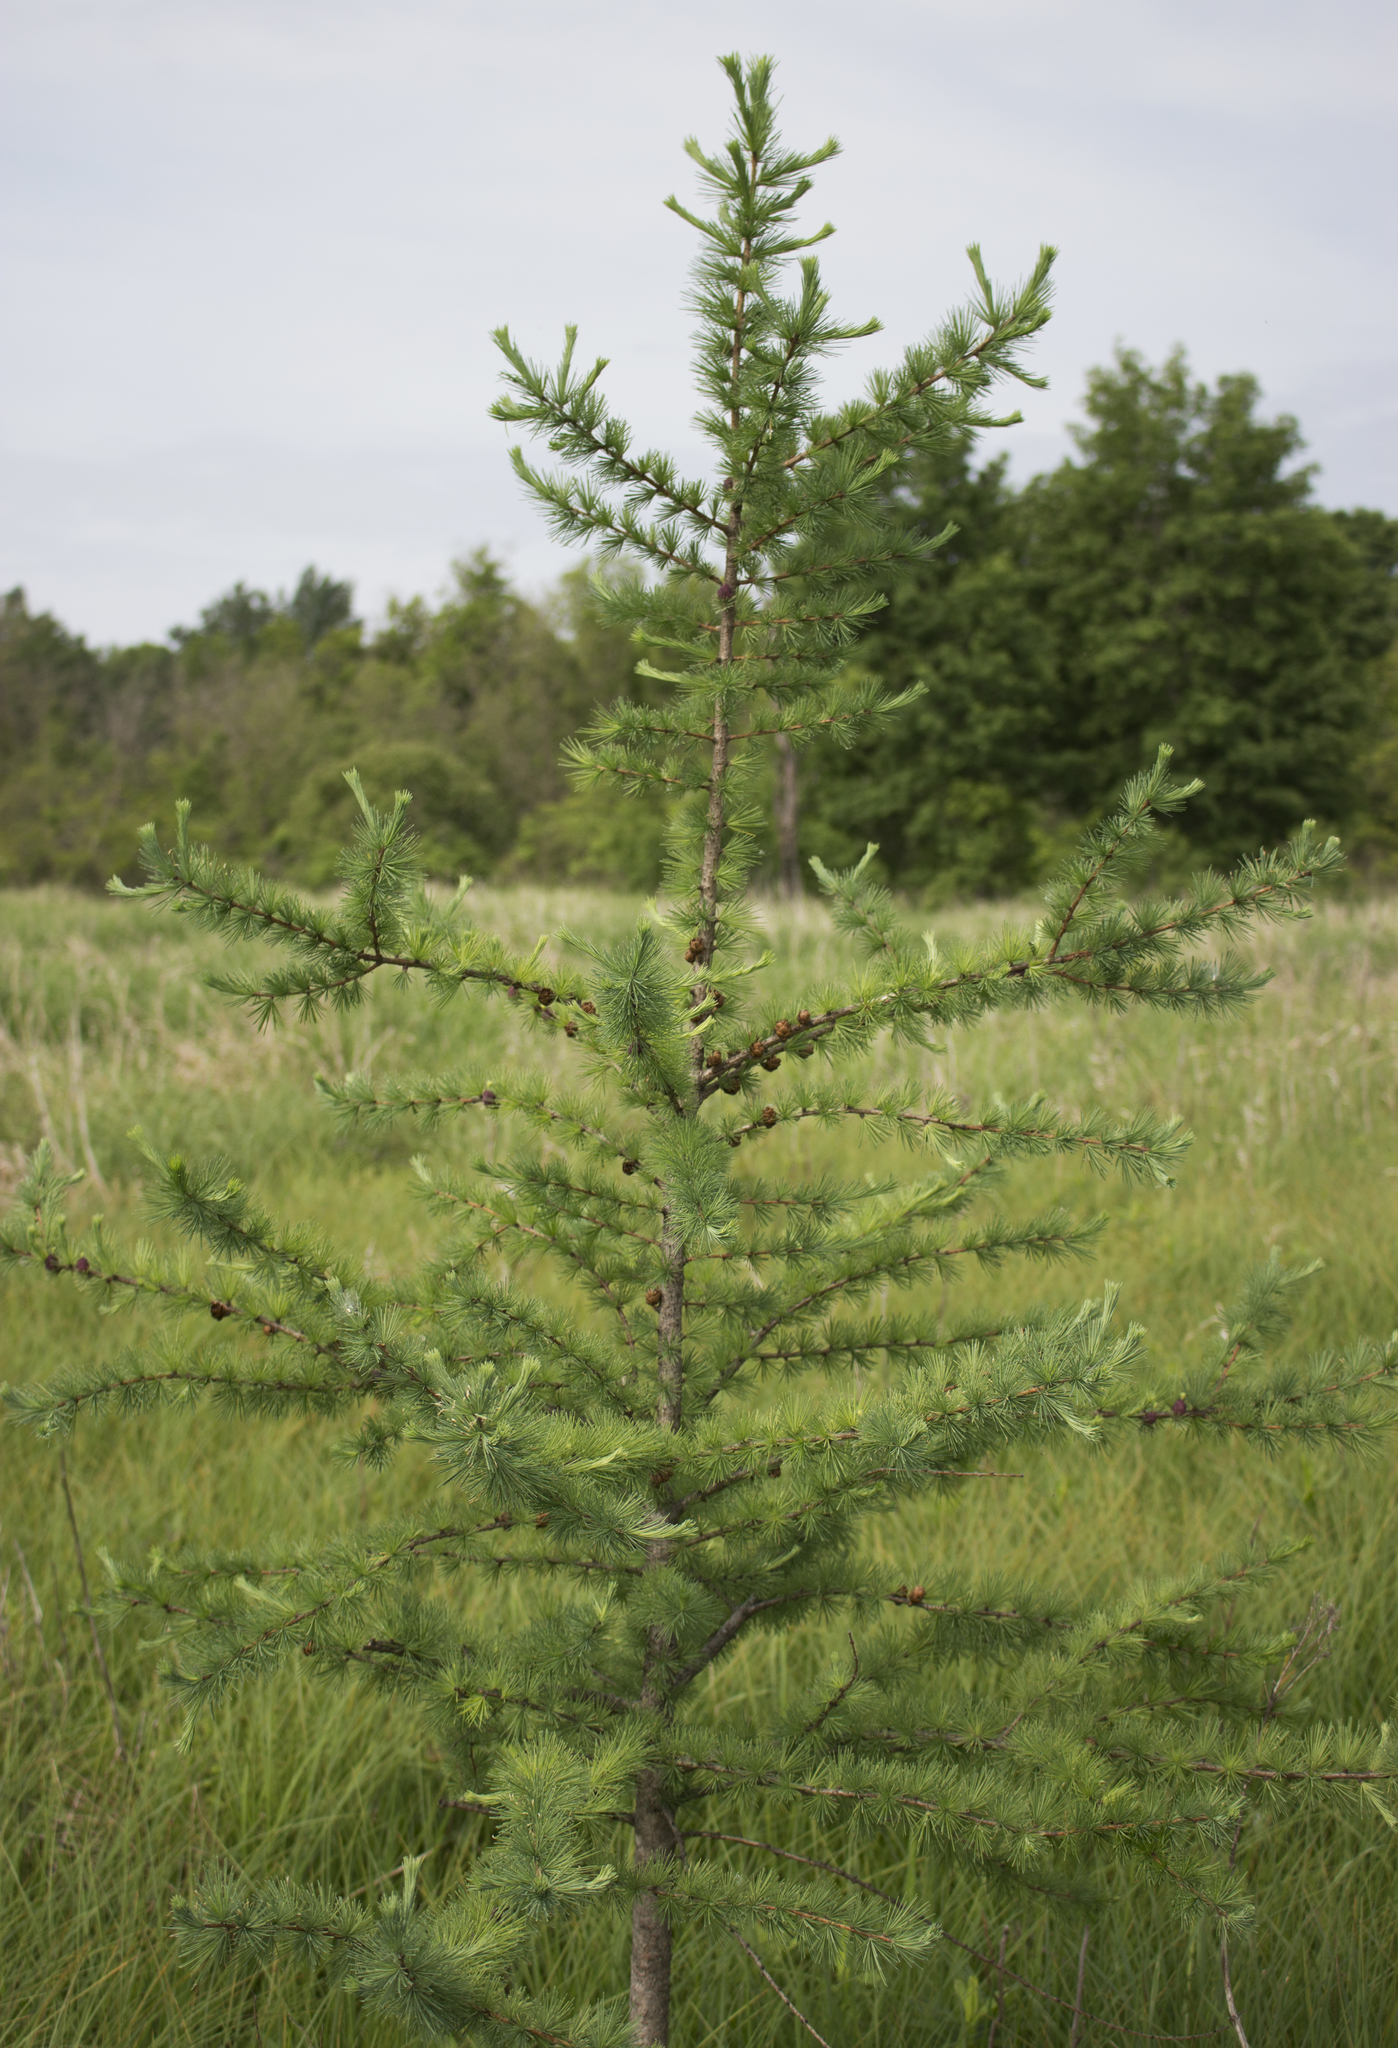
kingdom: Plantae
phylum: Tracheophyta
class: Pinopsida
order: Pinales
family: Pinaceae
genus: Larix
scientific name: Larix laricina
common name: American larch
